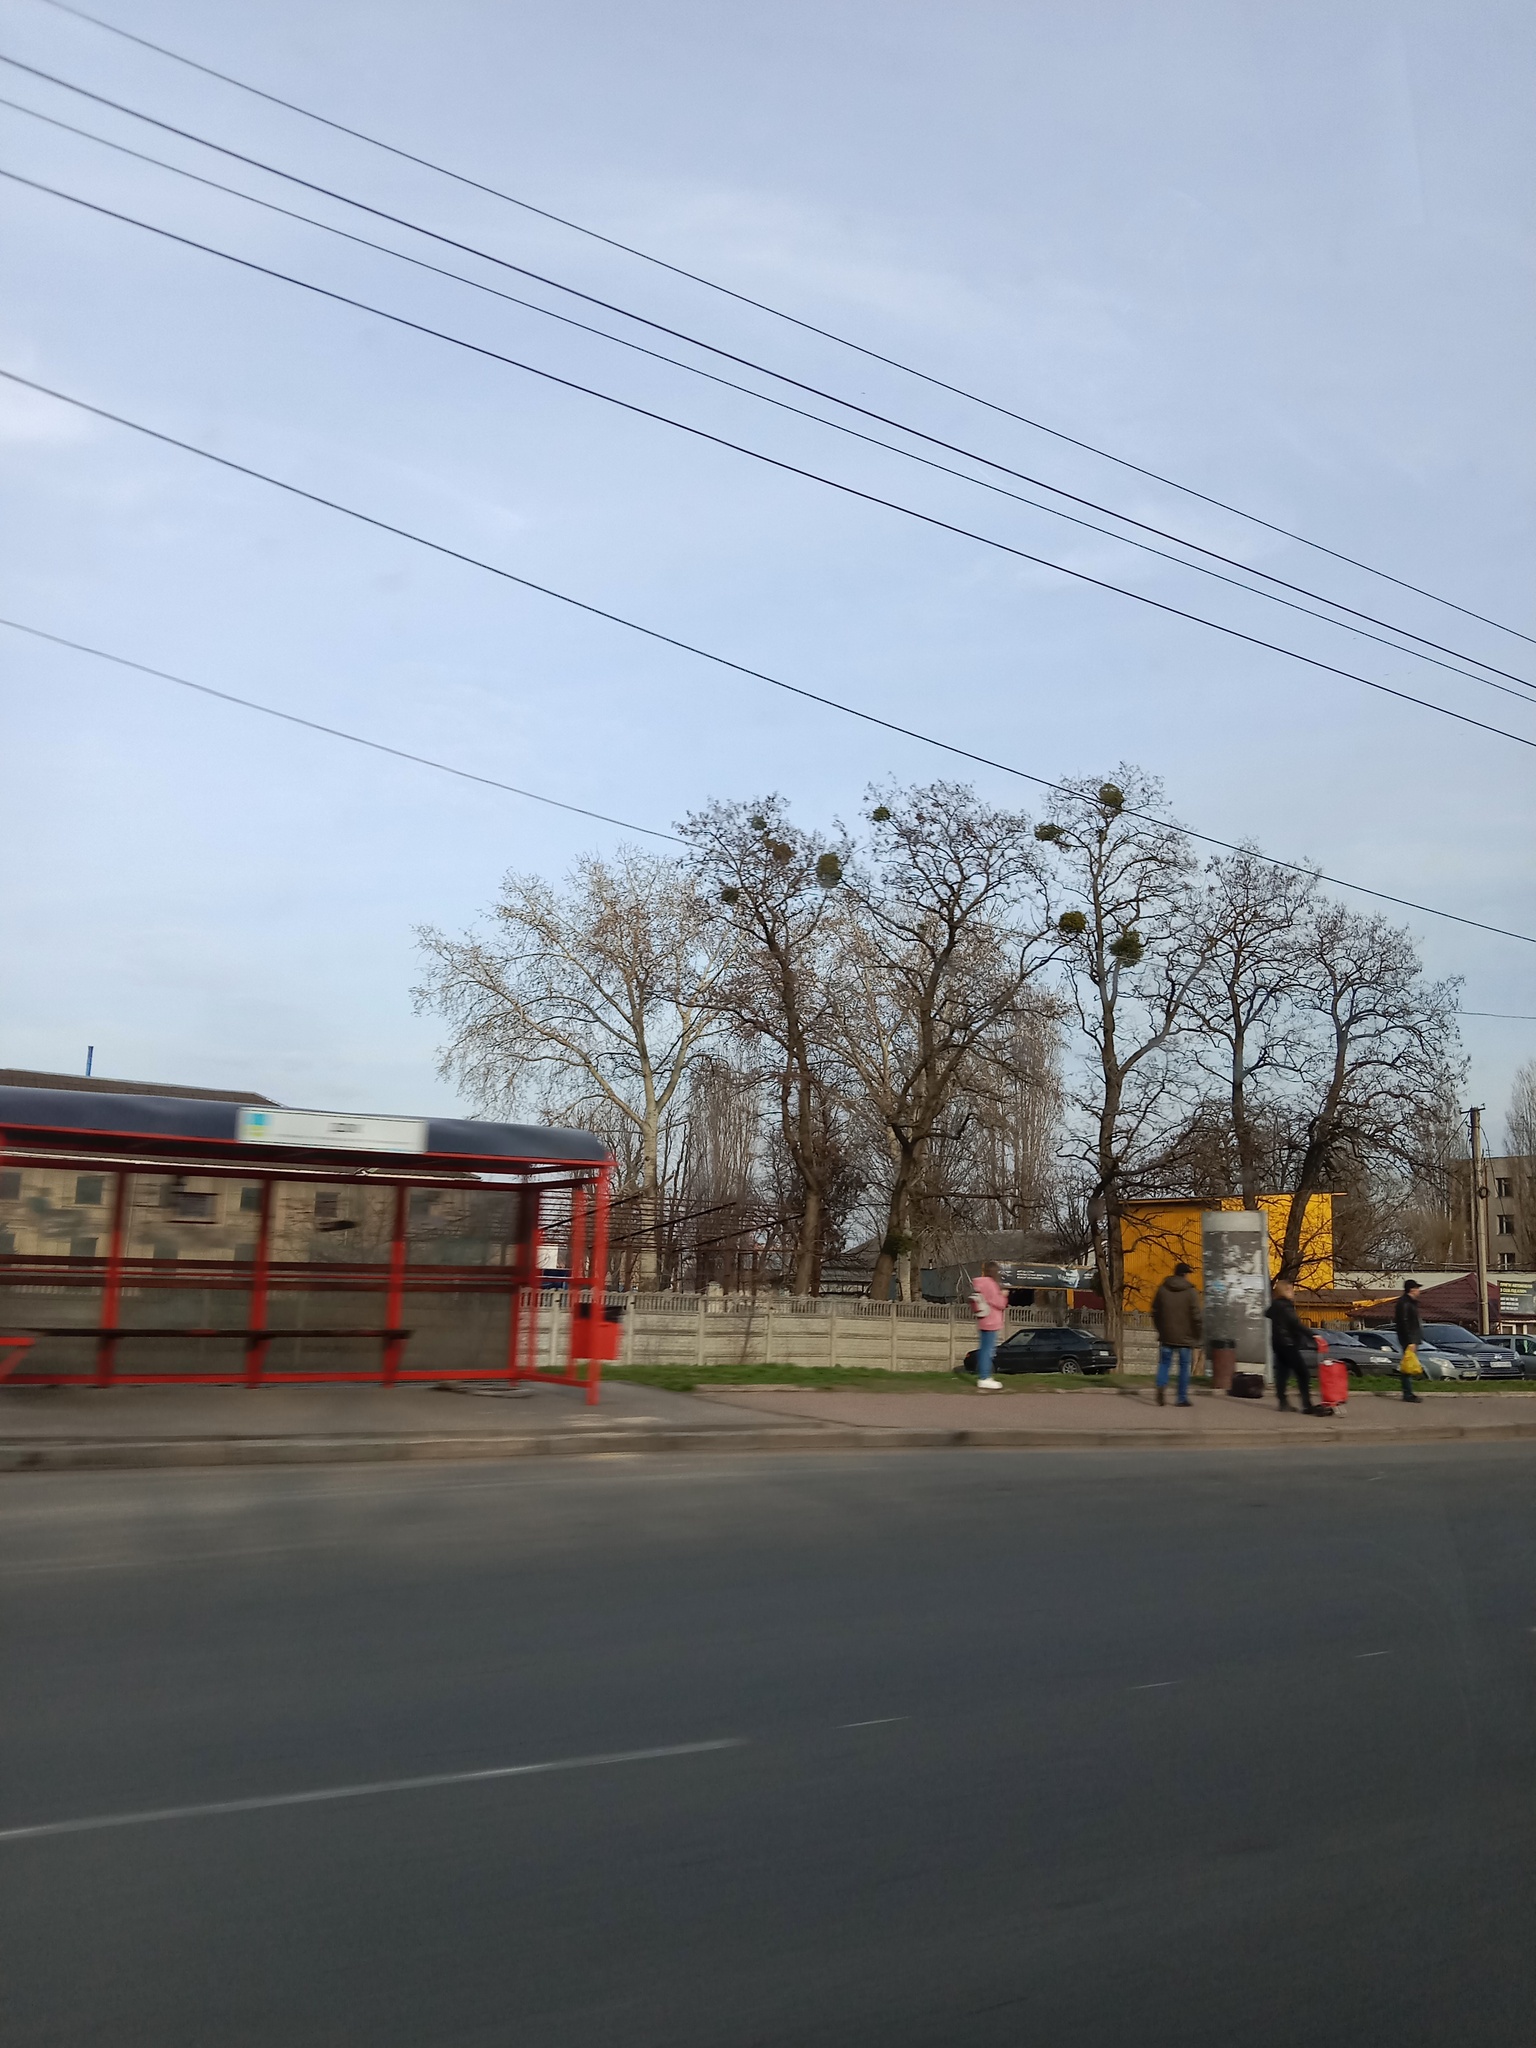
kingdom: Plantae
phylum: Tracheophyta
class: Magnoliopsida
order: Santalales
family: Viscaceae
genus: Viscum
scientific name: Viscum album
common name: Mistletoe
